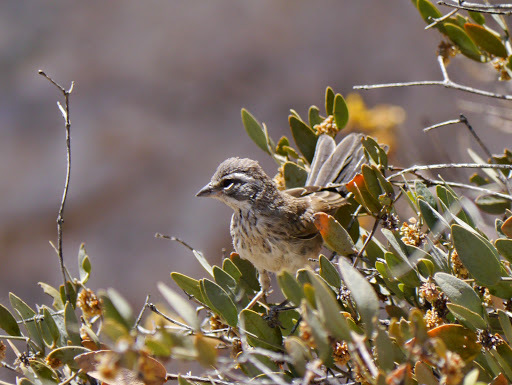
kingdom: Animalia
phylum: Chordata
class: Aves
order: Passeriformes
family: Passerellidae
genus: Amphispiza
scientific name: Amphispiza bilineata
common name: Black-throated sparrow
